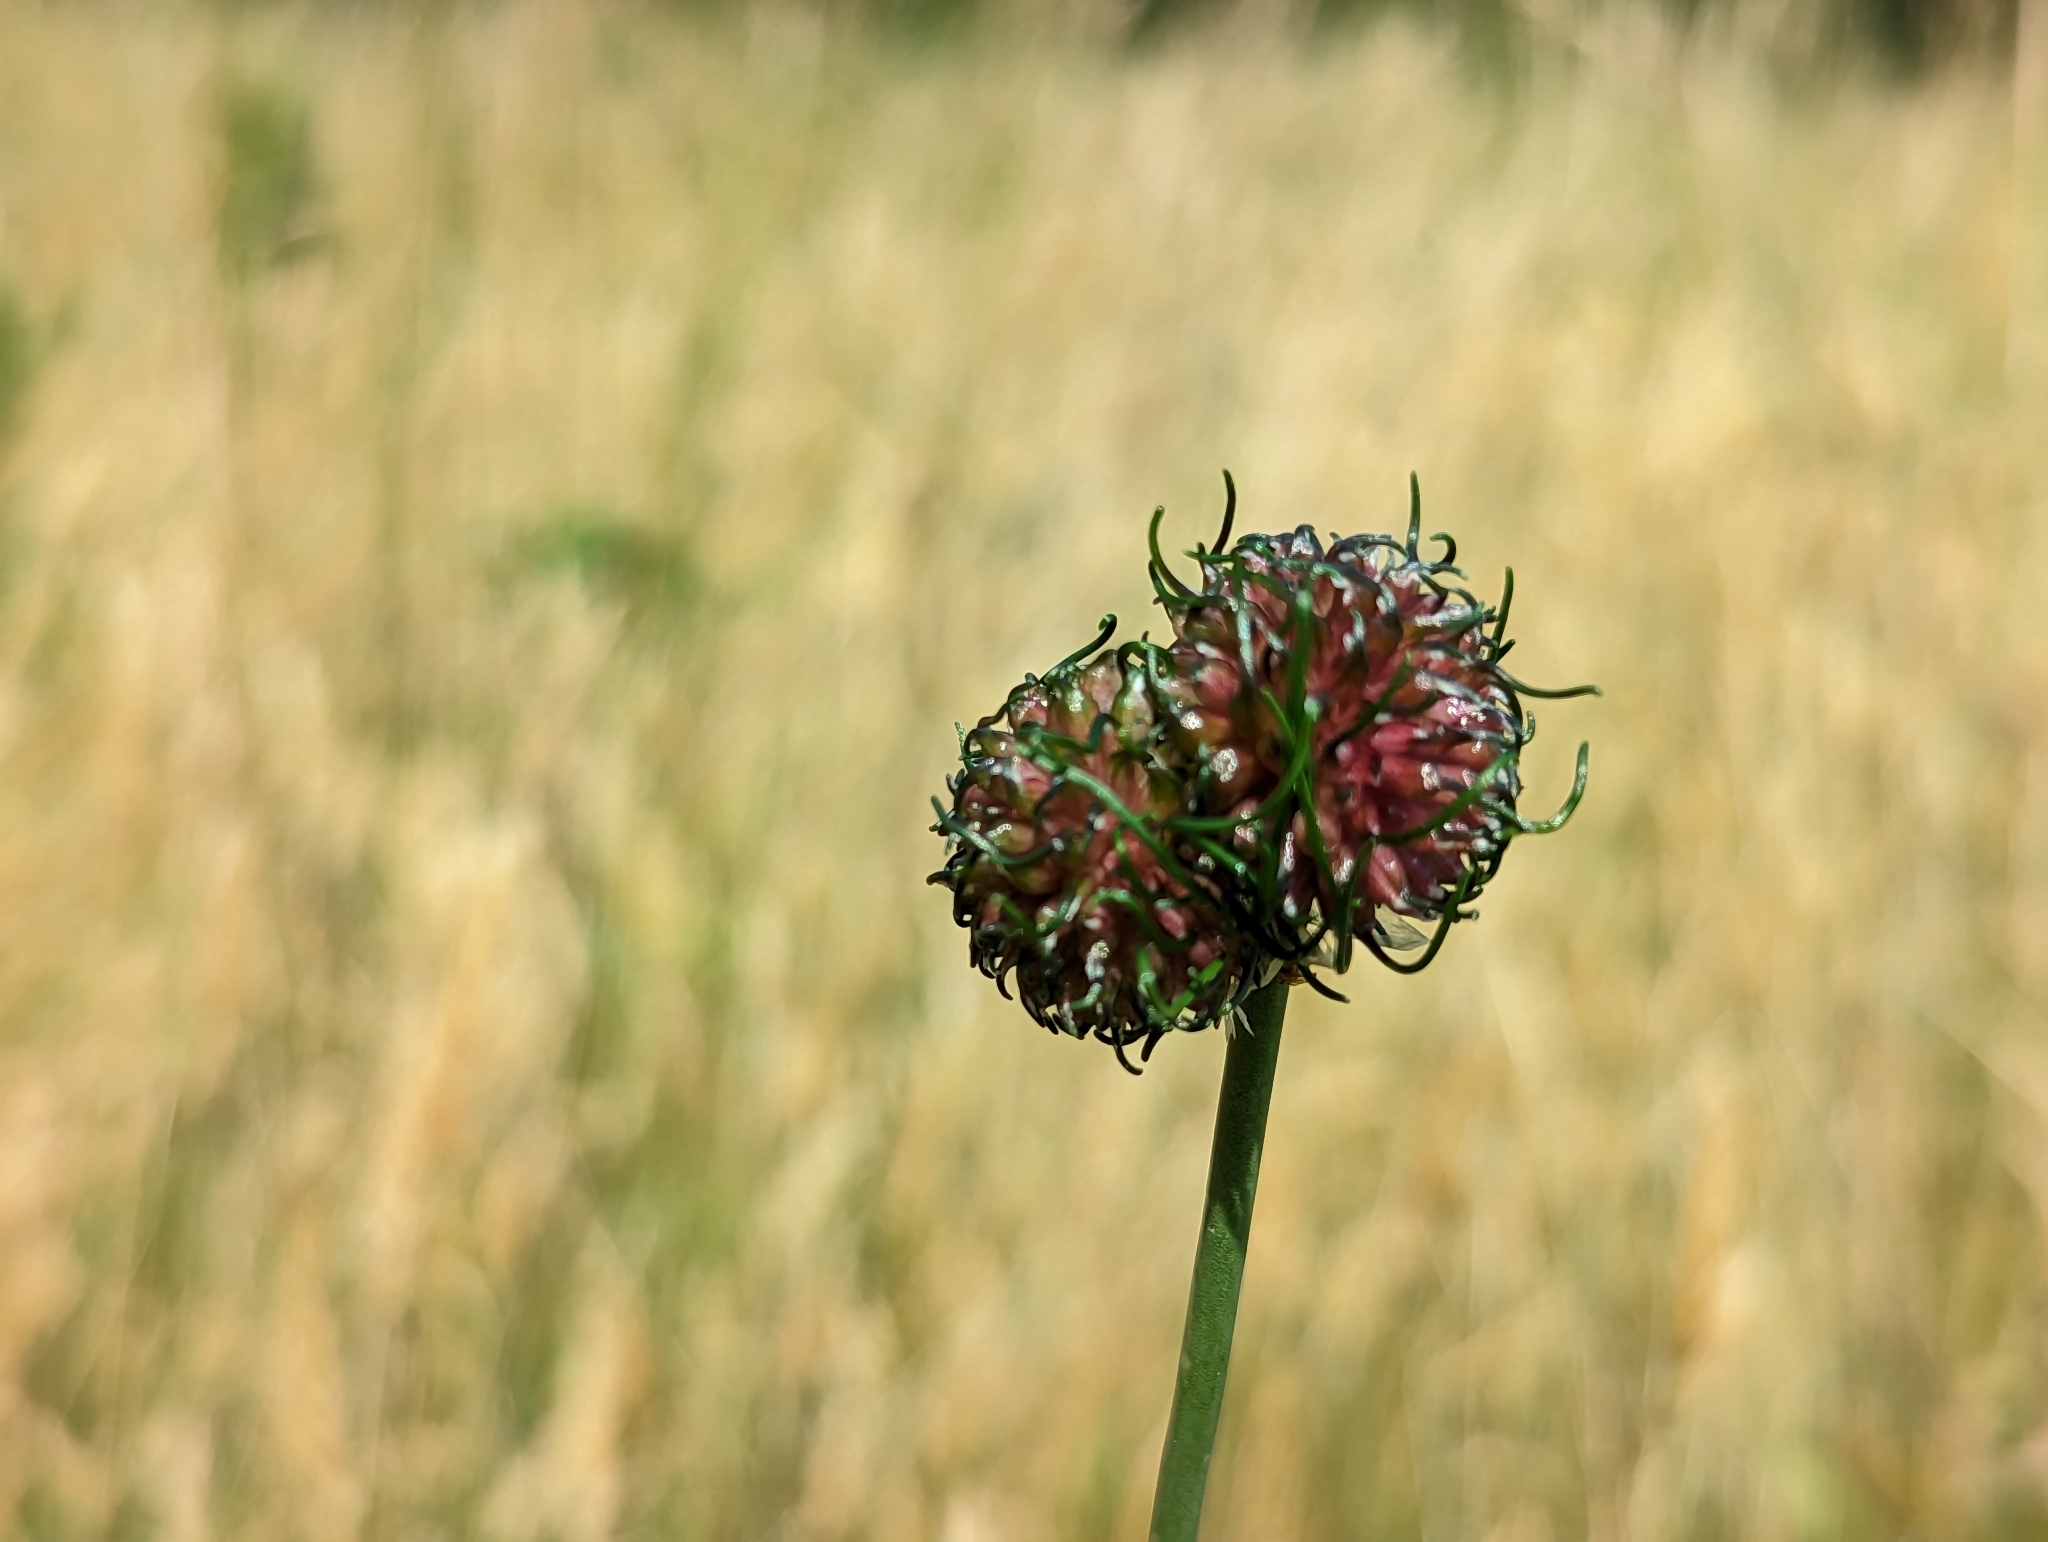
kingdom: Plantae
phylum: Tracheophyta
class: Liliopsida
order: Asparagales
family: Amaryllidaceae
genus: Allium
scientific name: Allium vineale
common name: Crow garlic
